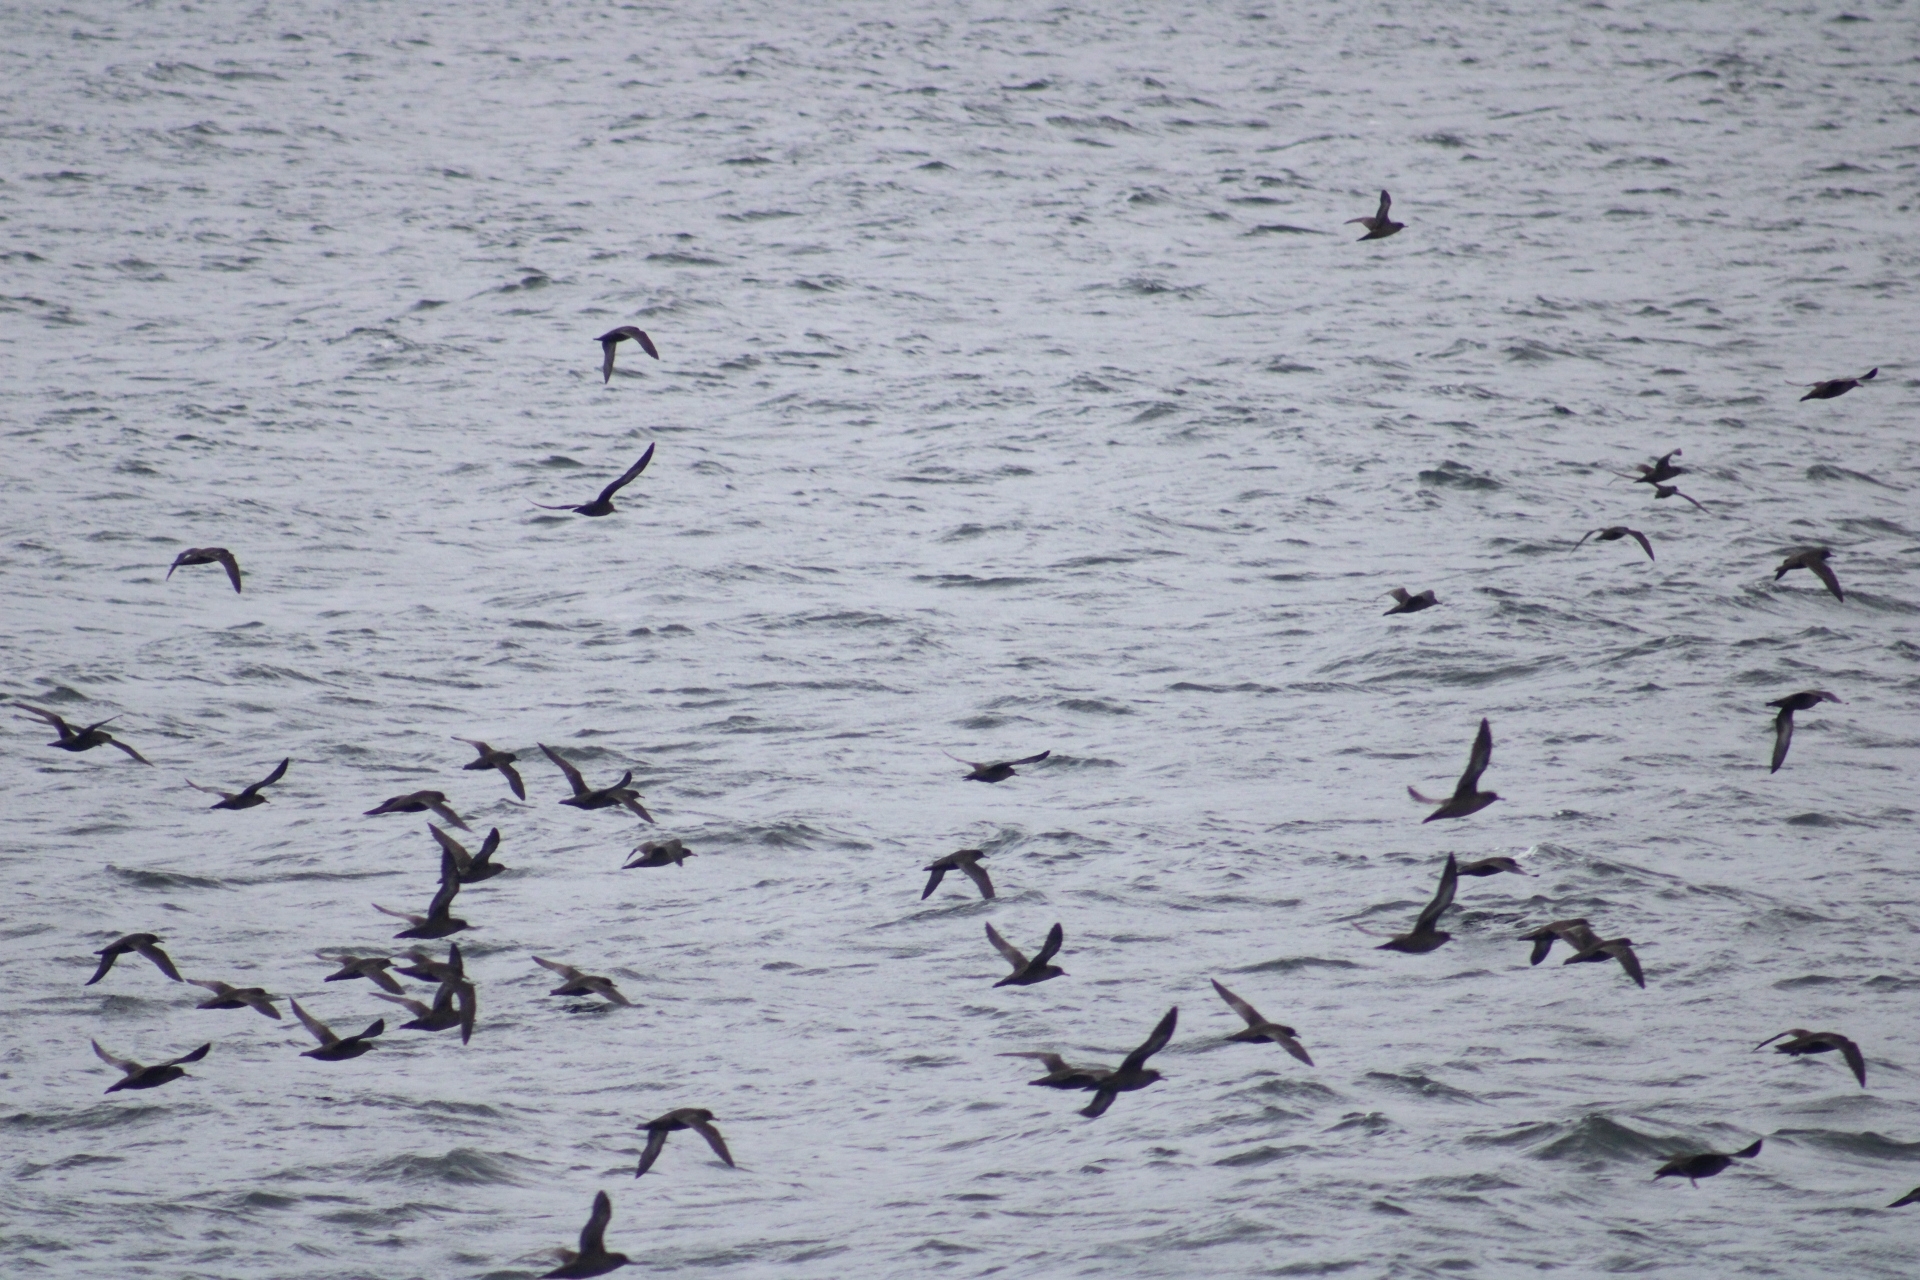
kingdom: Animalia
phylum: Chordata
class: Aves
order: Procellariiformes
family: Procellariidae
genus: Puffinus
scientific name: Puffinus griseus
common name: Sooty shearwater
